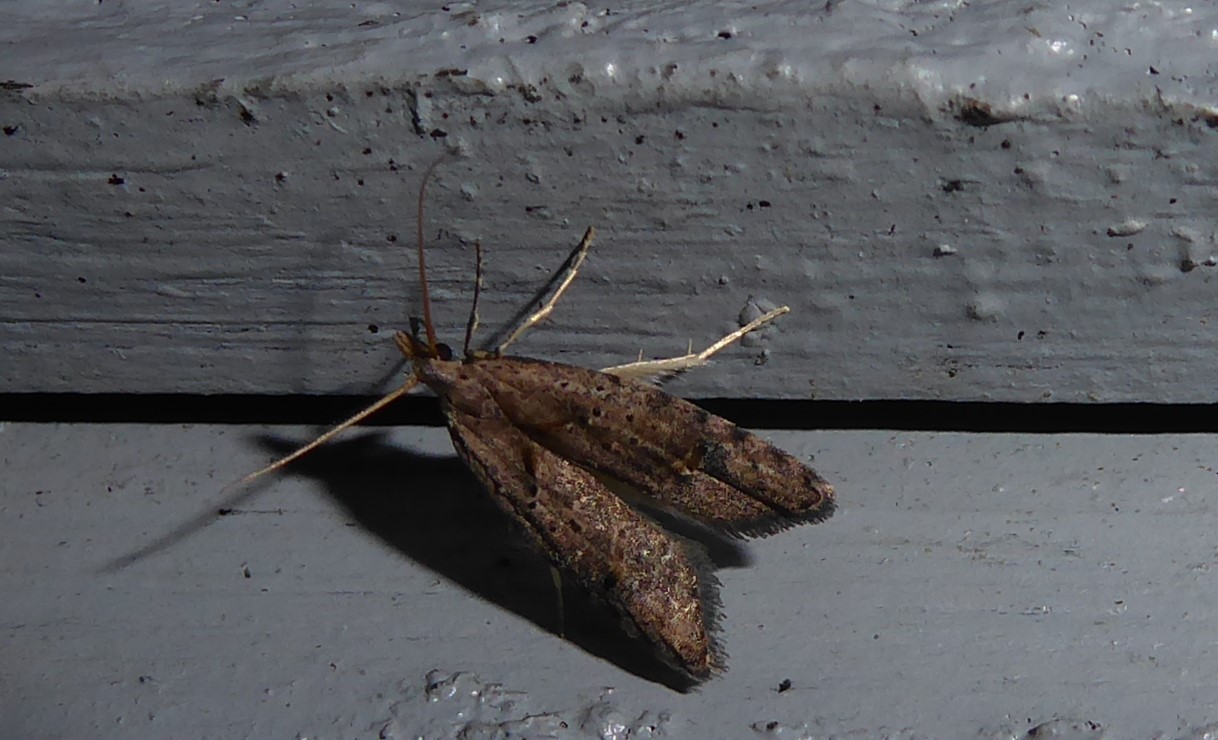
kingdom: Animalia
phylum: Arthropoda
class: Insecta
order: Lepidoptera
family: Carposinidae
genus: Carposina
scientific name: Carposina rubophaga
